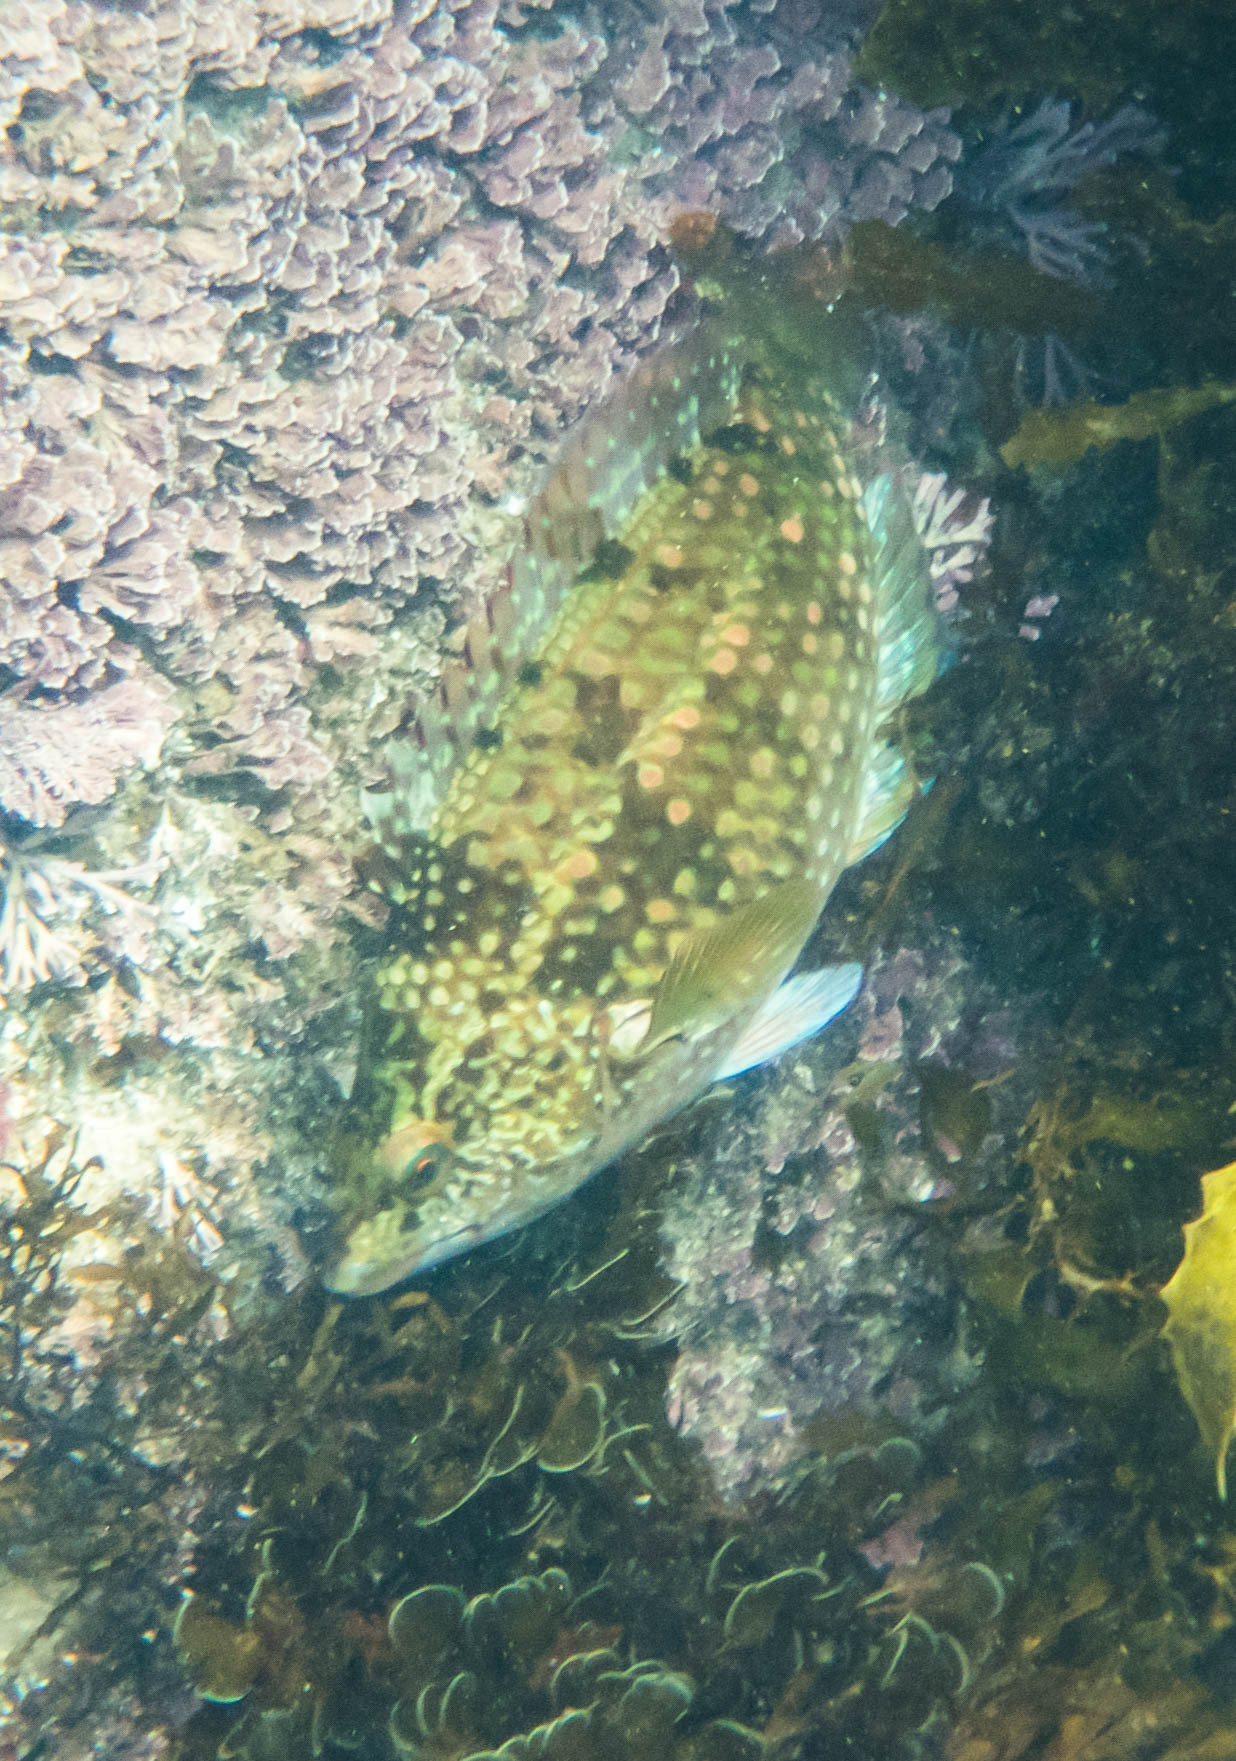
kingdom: Animalia
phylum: Chordata
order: Perciformes
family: Labridae
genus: Notolabrus
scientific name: Notolabrus gymnogenis
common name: Crimson banded wrasse
